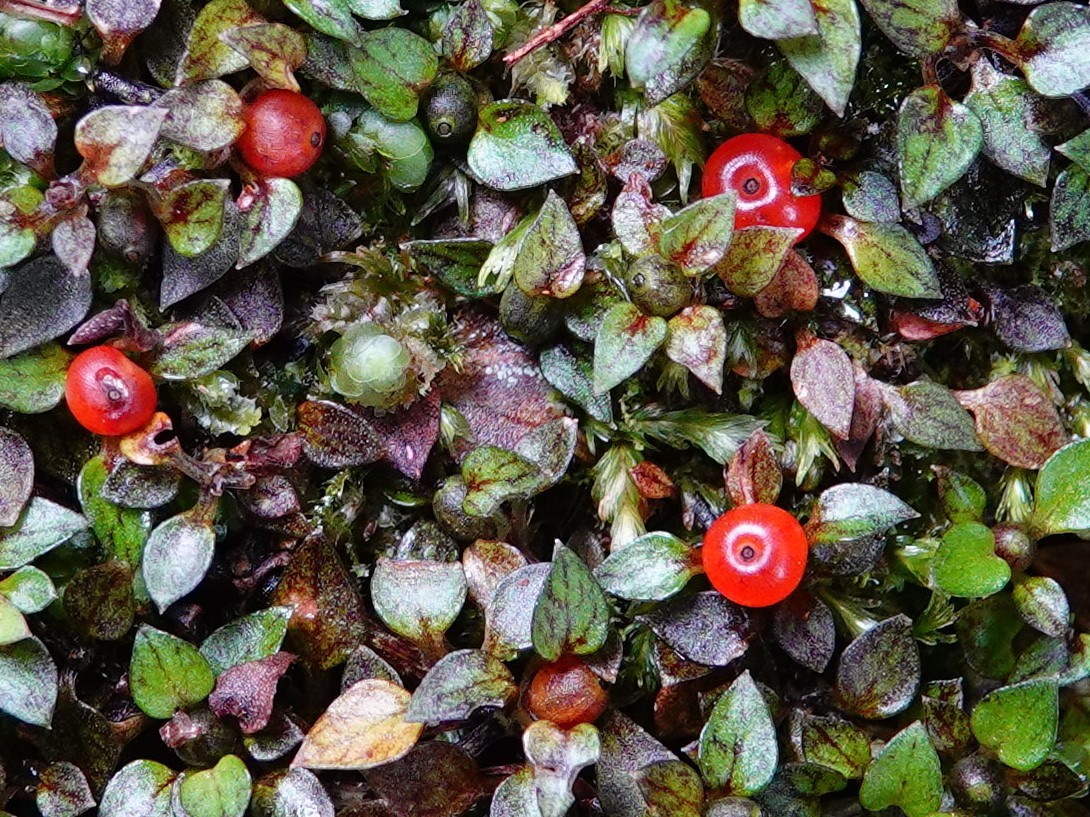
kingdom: Plantae
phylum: Tracheophyta
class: Magnoliopsida
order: Gentianales
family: Rubiaceae
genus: Nertera
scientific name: Nertera granadensis
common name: Beadplant
